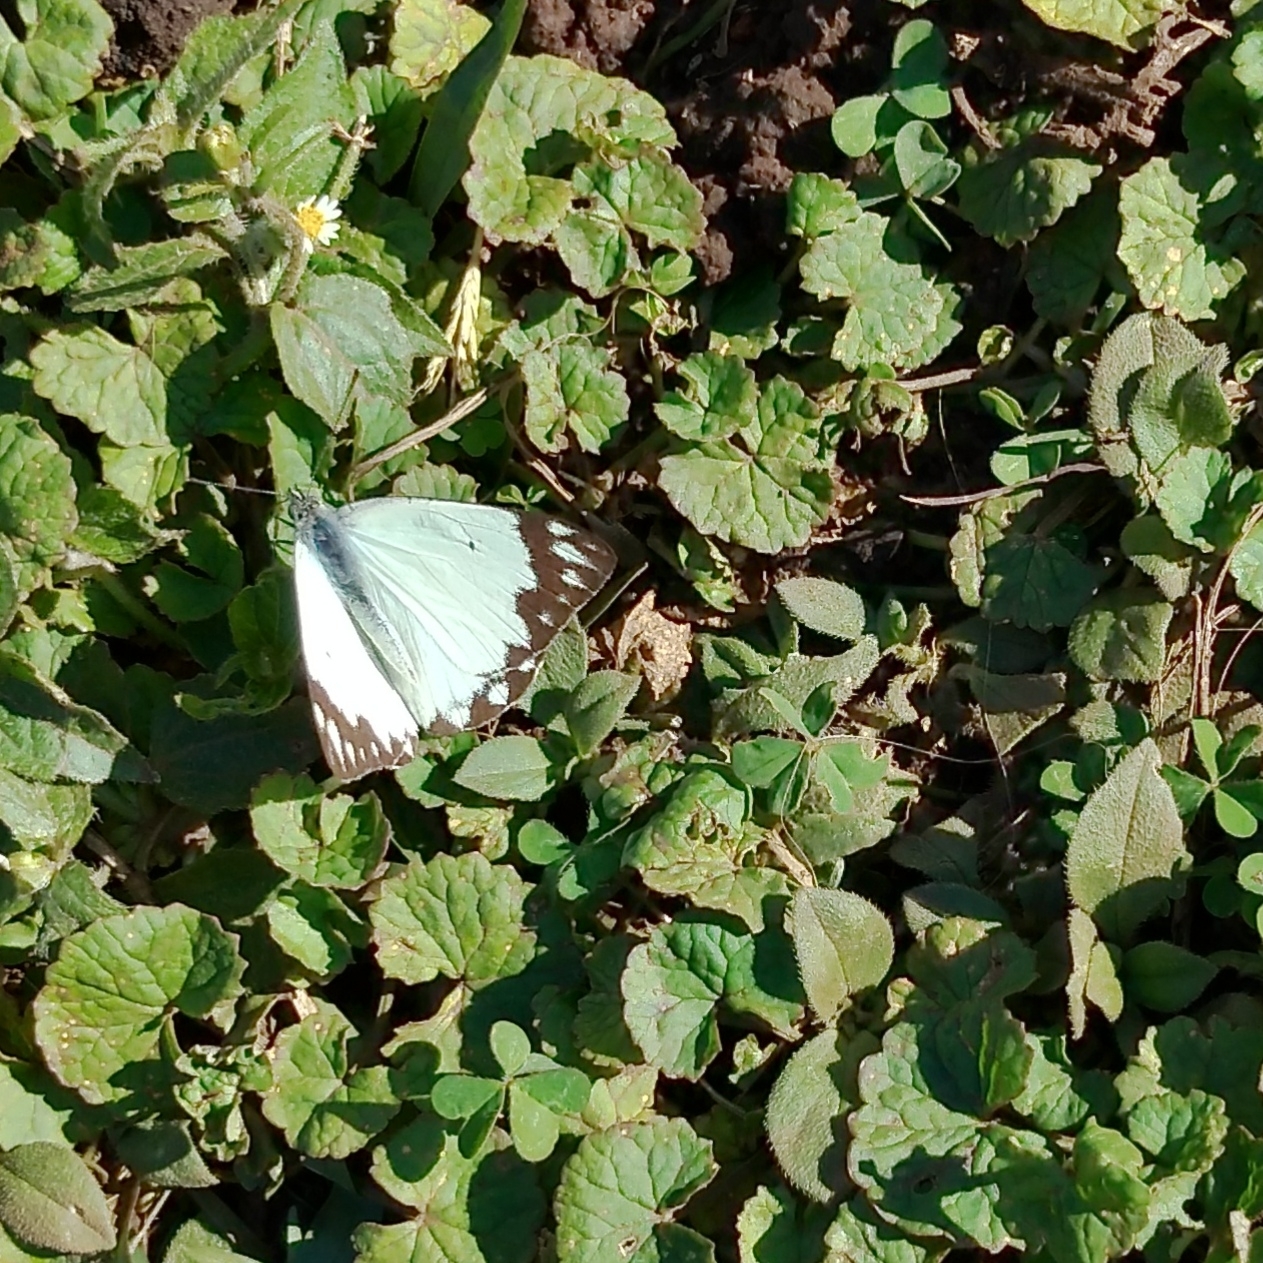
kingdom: Animalia
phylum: Arthropoda
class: Insecta
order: Lepidoptera
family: Pieridae
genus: Belenois
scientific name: Belenois creona
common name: African caper white
